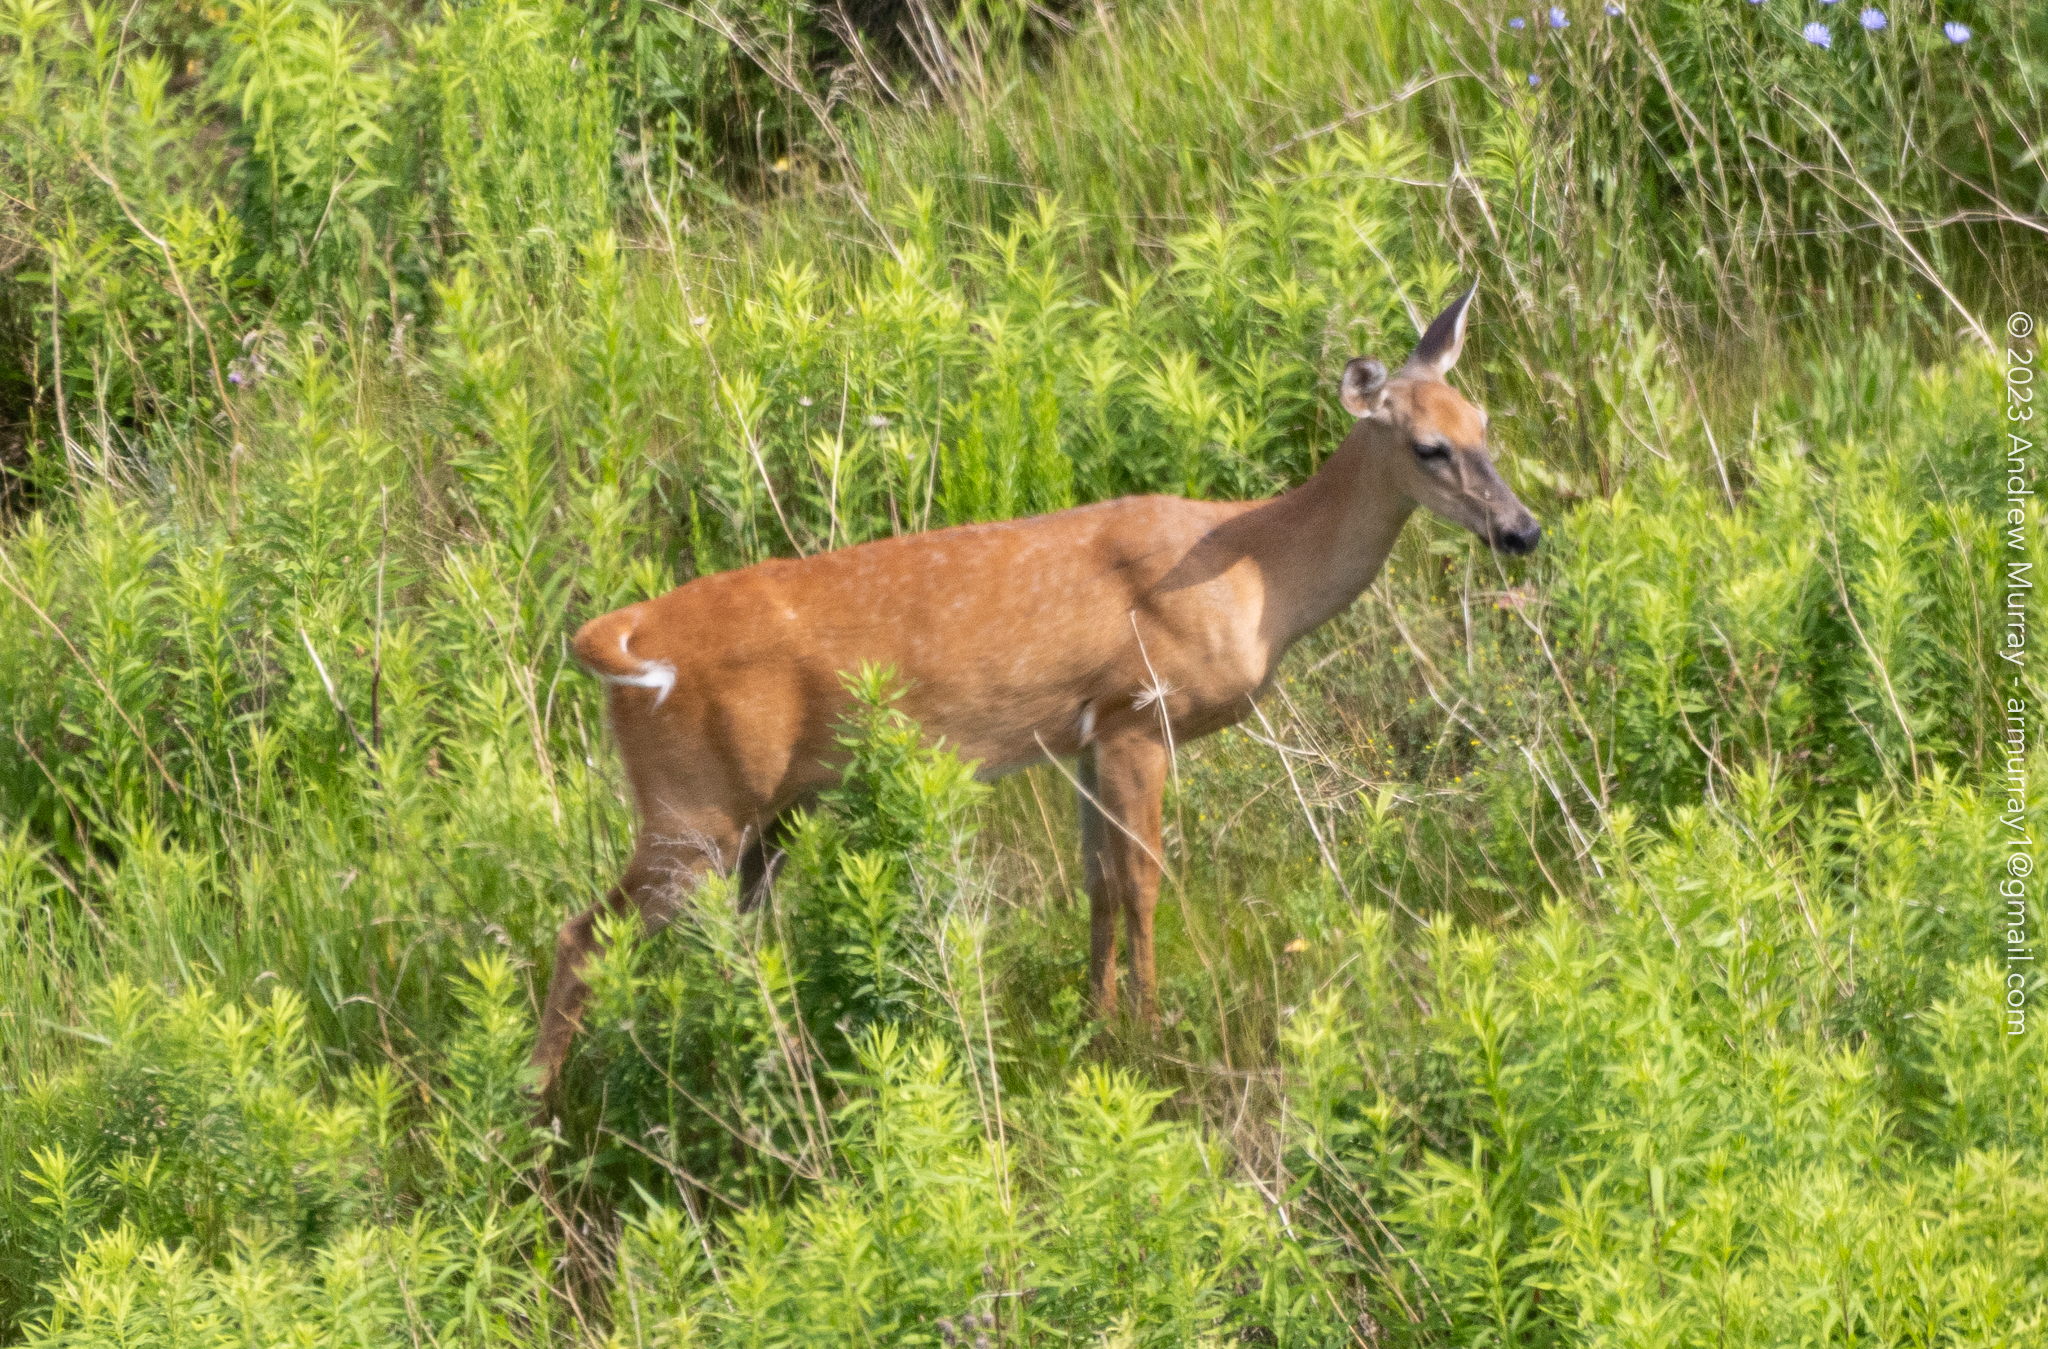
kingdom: Animalia
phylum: Chordata
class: Mammalia
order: Artiodactyla
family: Cervidae
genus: Odocoileus
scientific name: Odocoileus virginianus
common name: White-tailed deer
